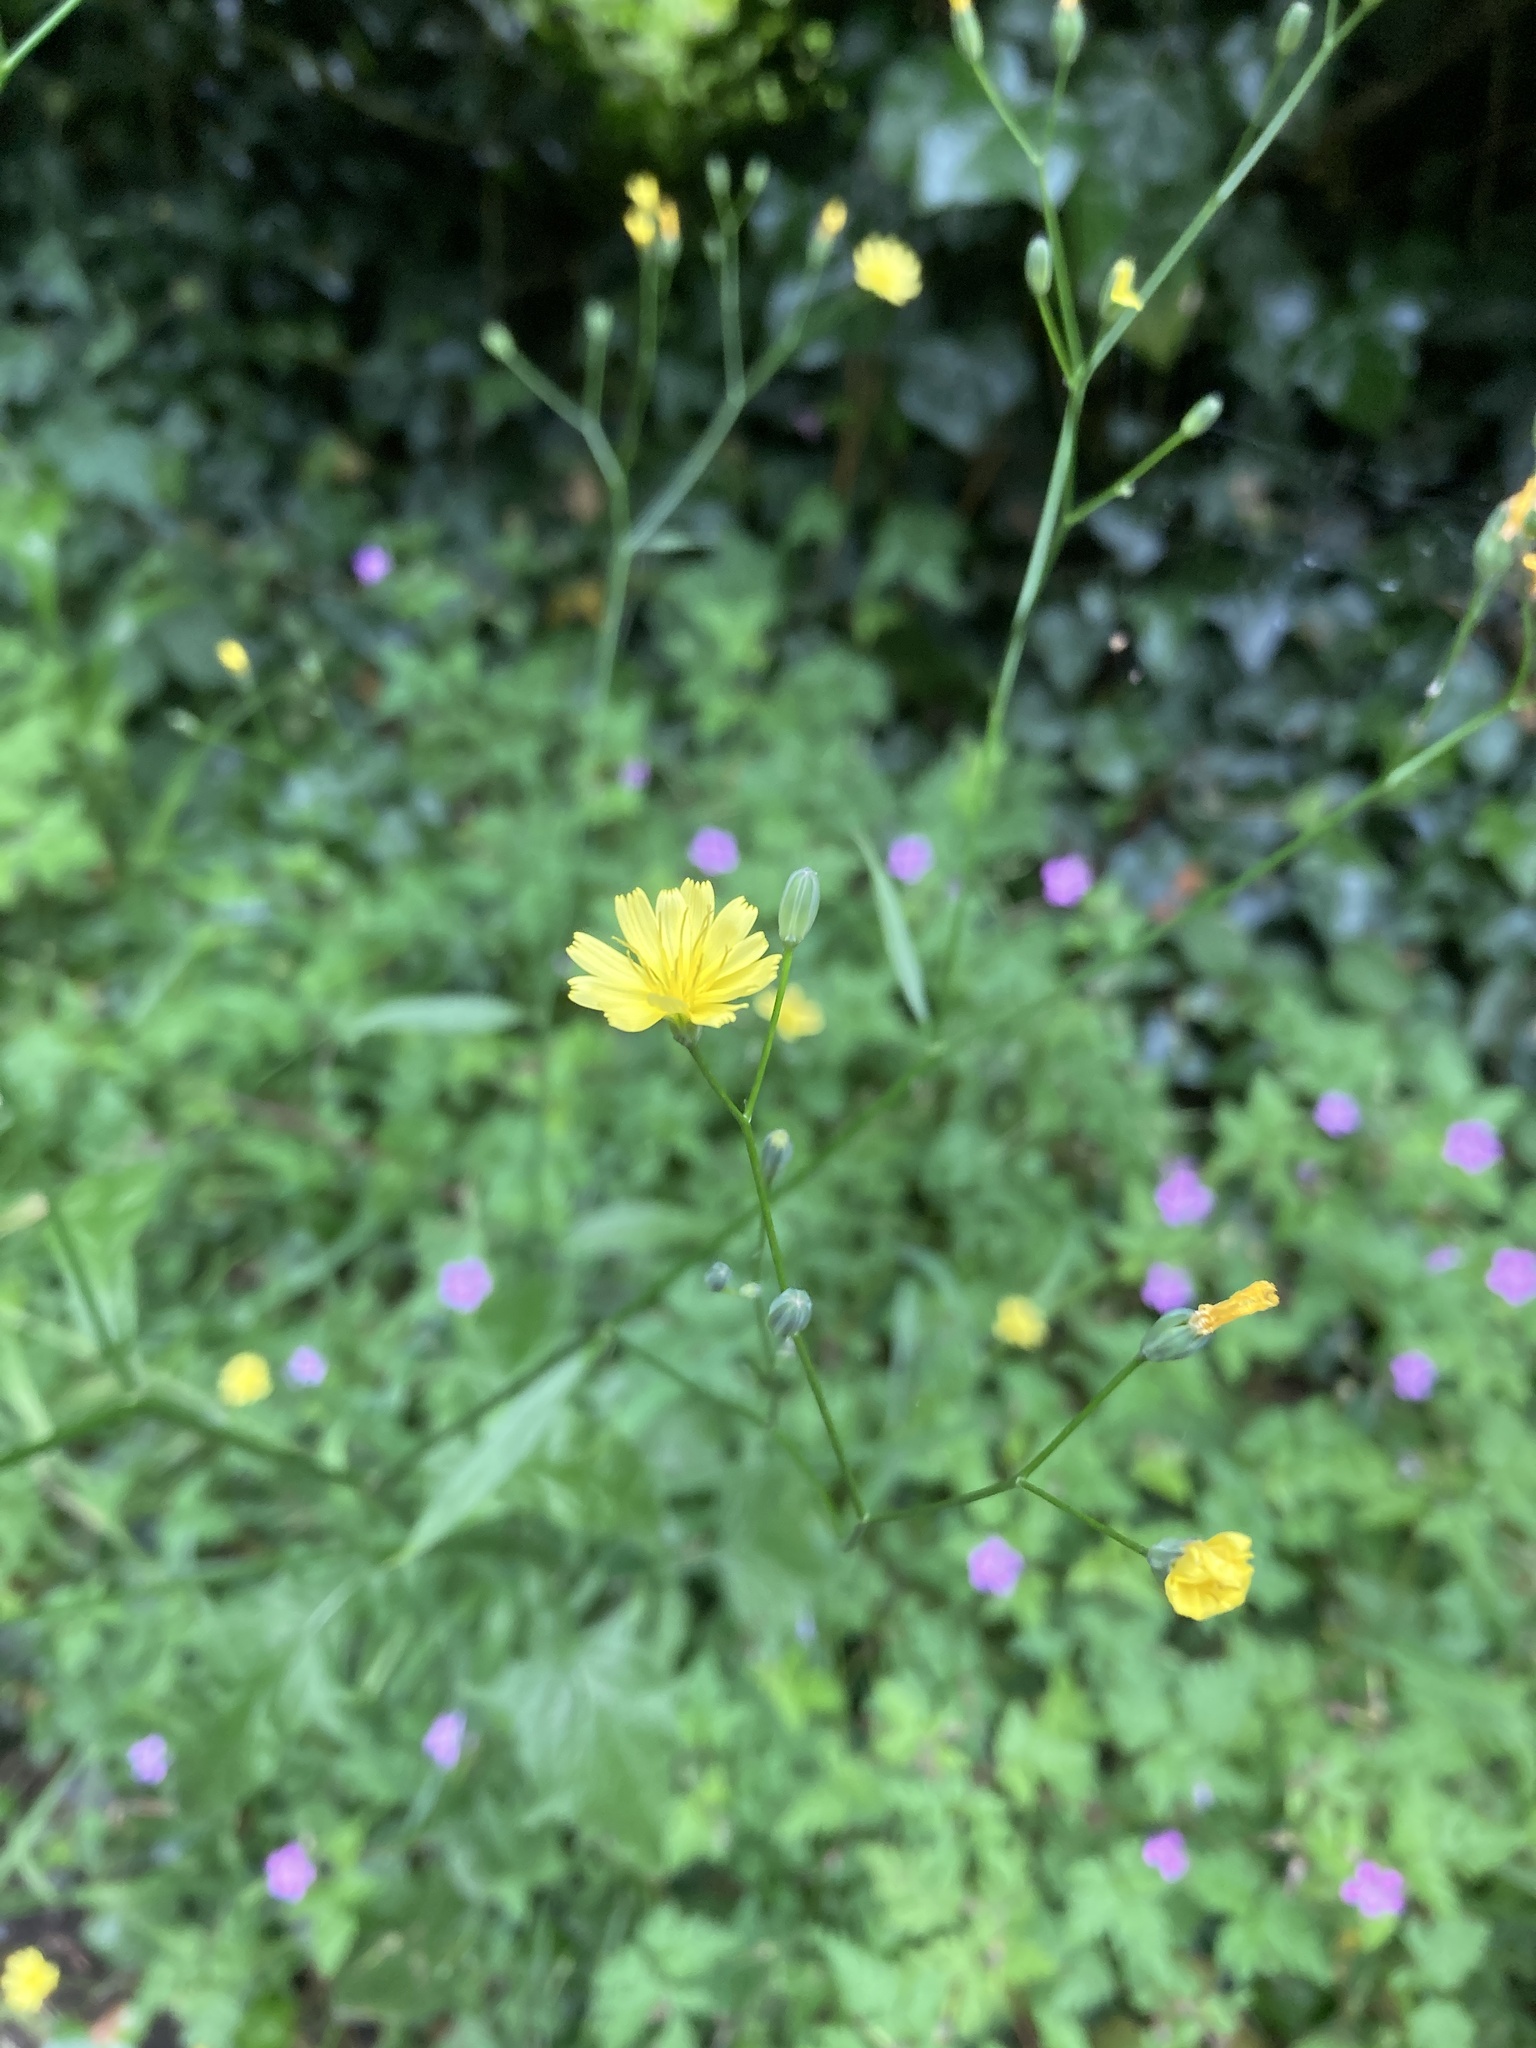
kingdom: Plantae
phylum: Tracheophyta
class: Magnoliopsida
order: Asterales
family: Asteraceae
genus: Lapsana
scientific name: Lapsana communis
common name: Nipplewort
